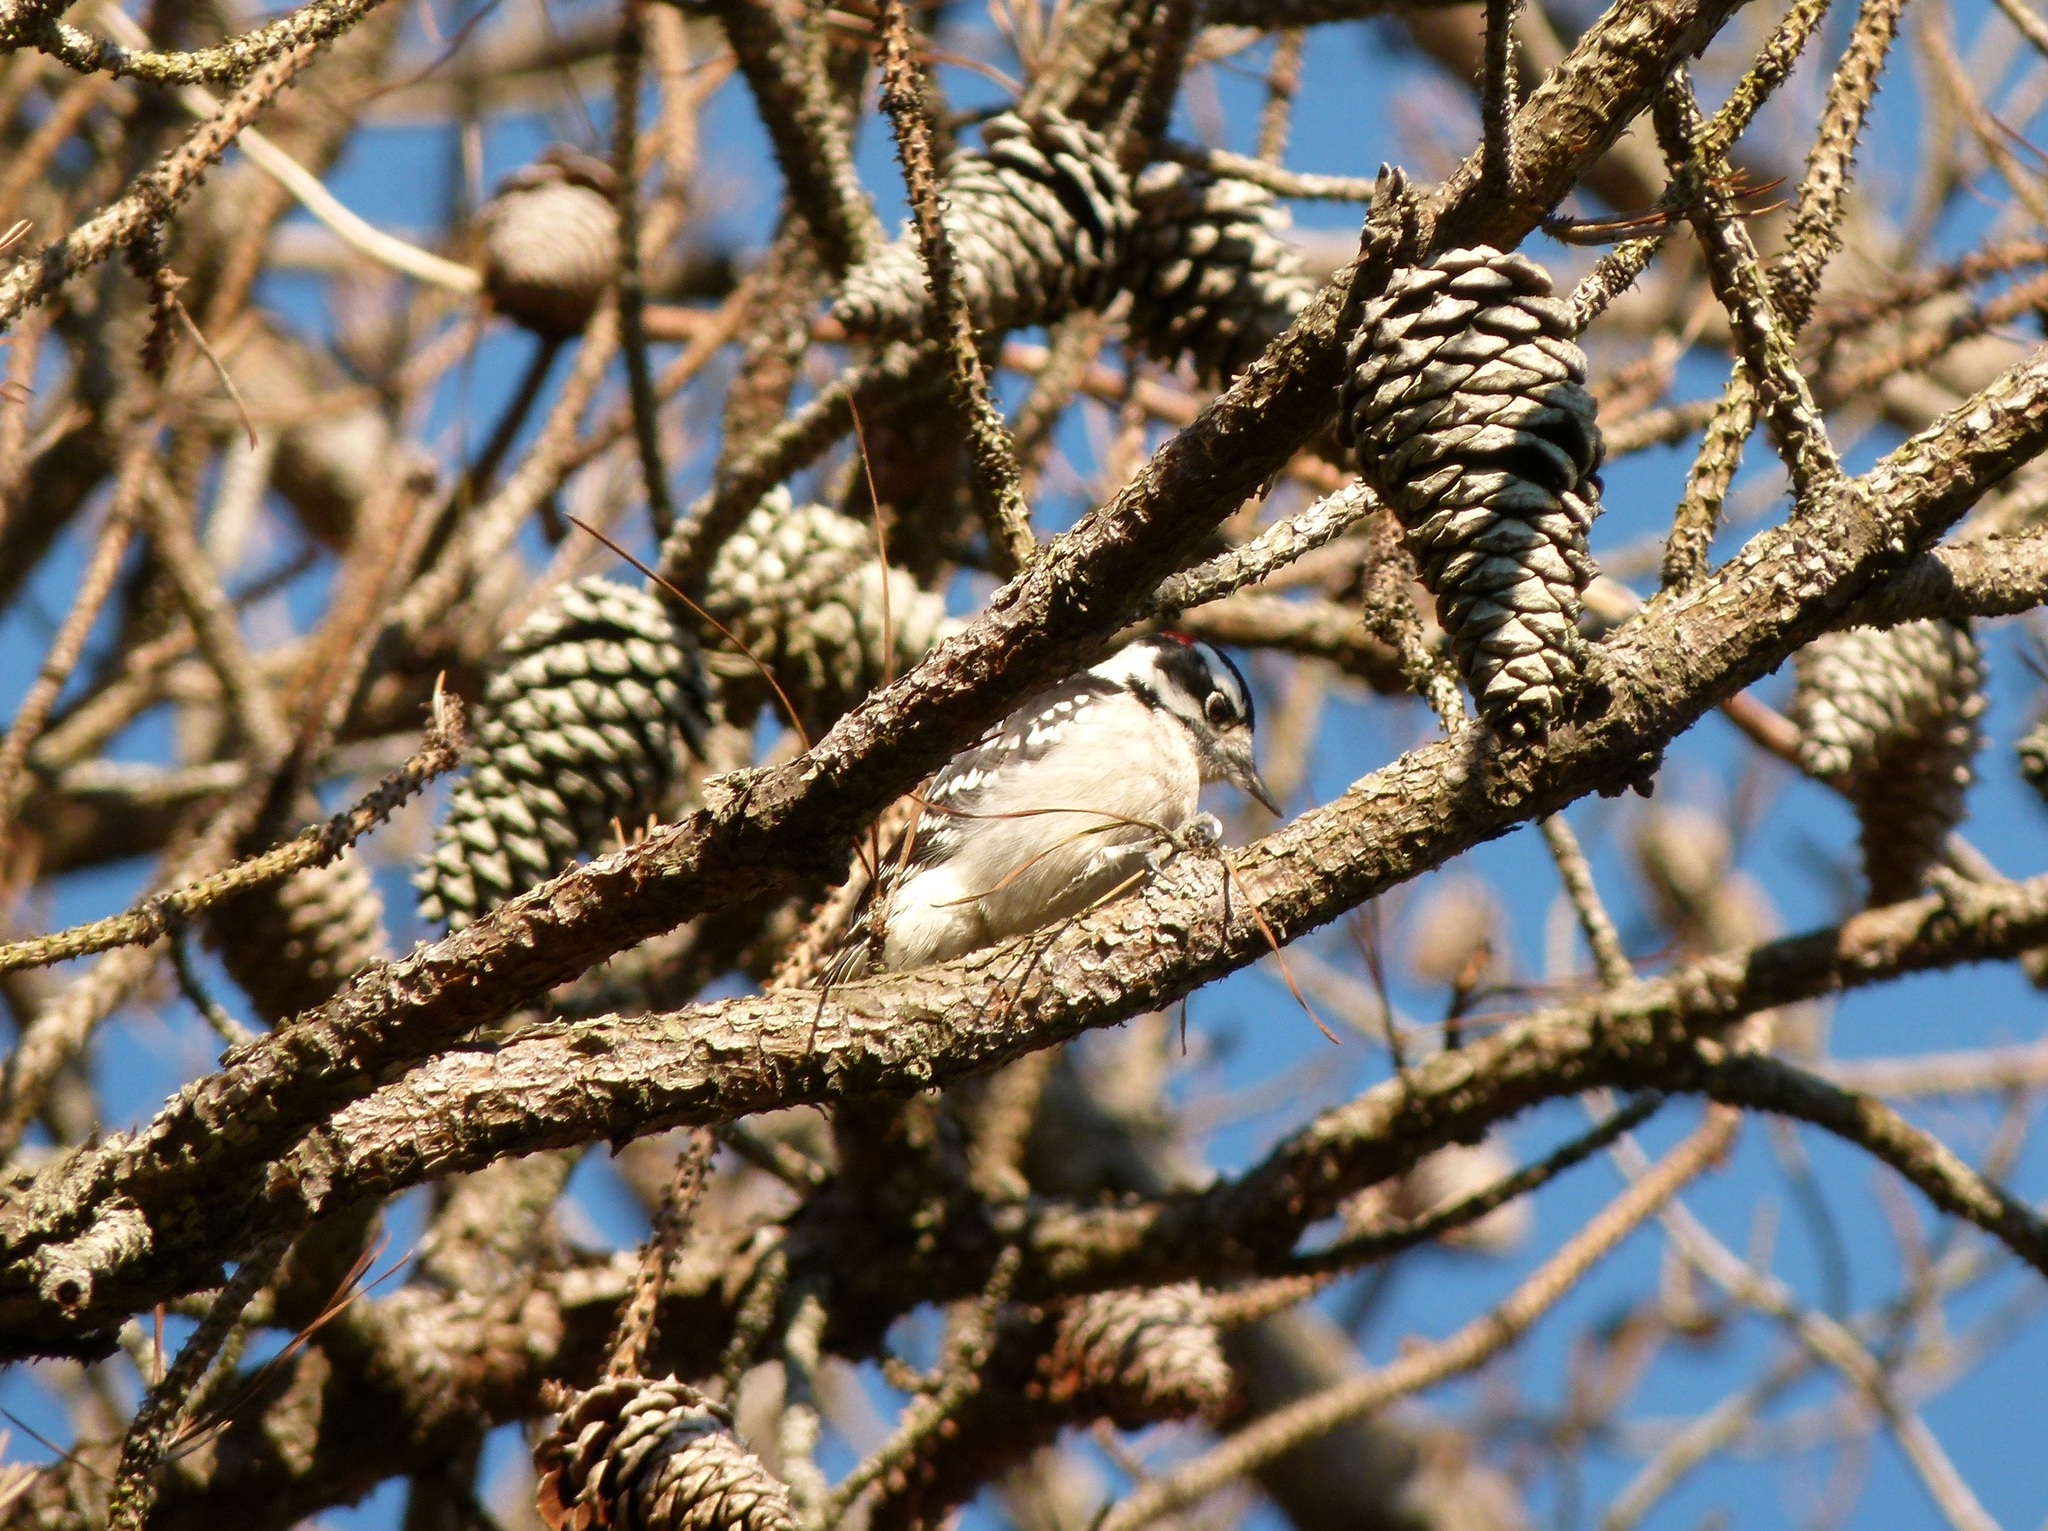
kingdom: Animalia
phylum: Chordata
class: Aves
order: Piciformes
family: Picidae
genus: Dryobates
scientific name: Dryobates pubescens
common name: Downy woodpecker
